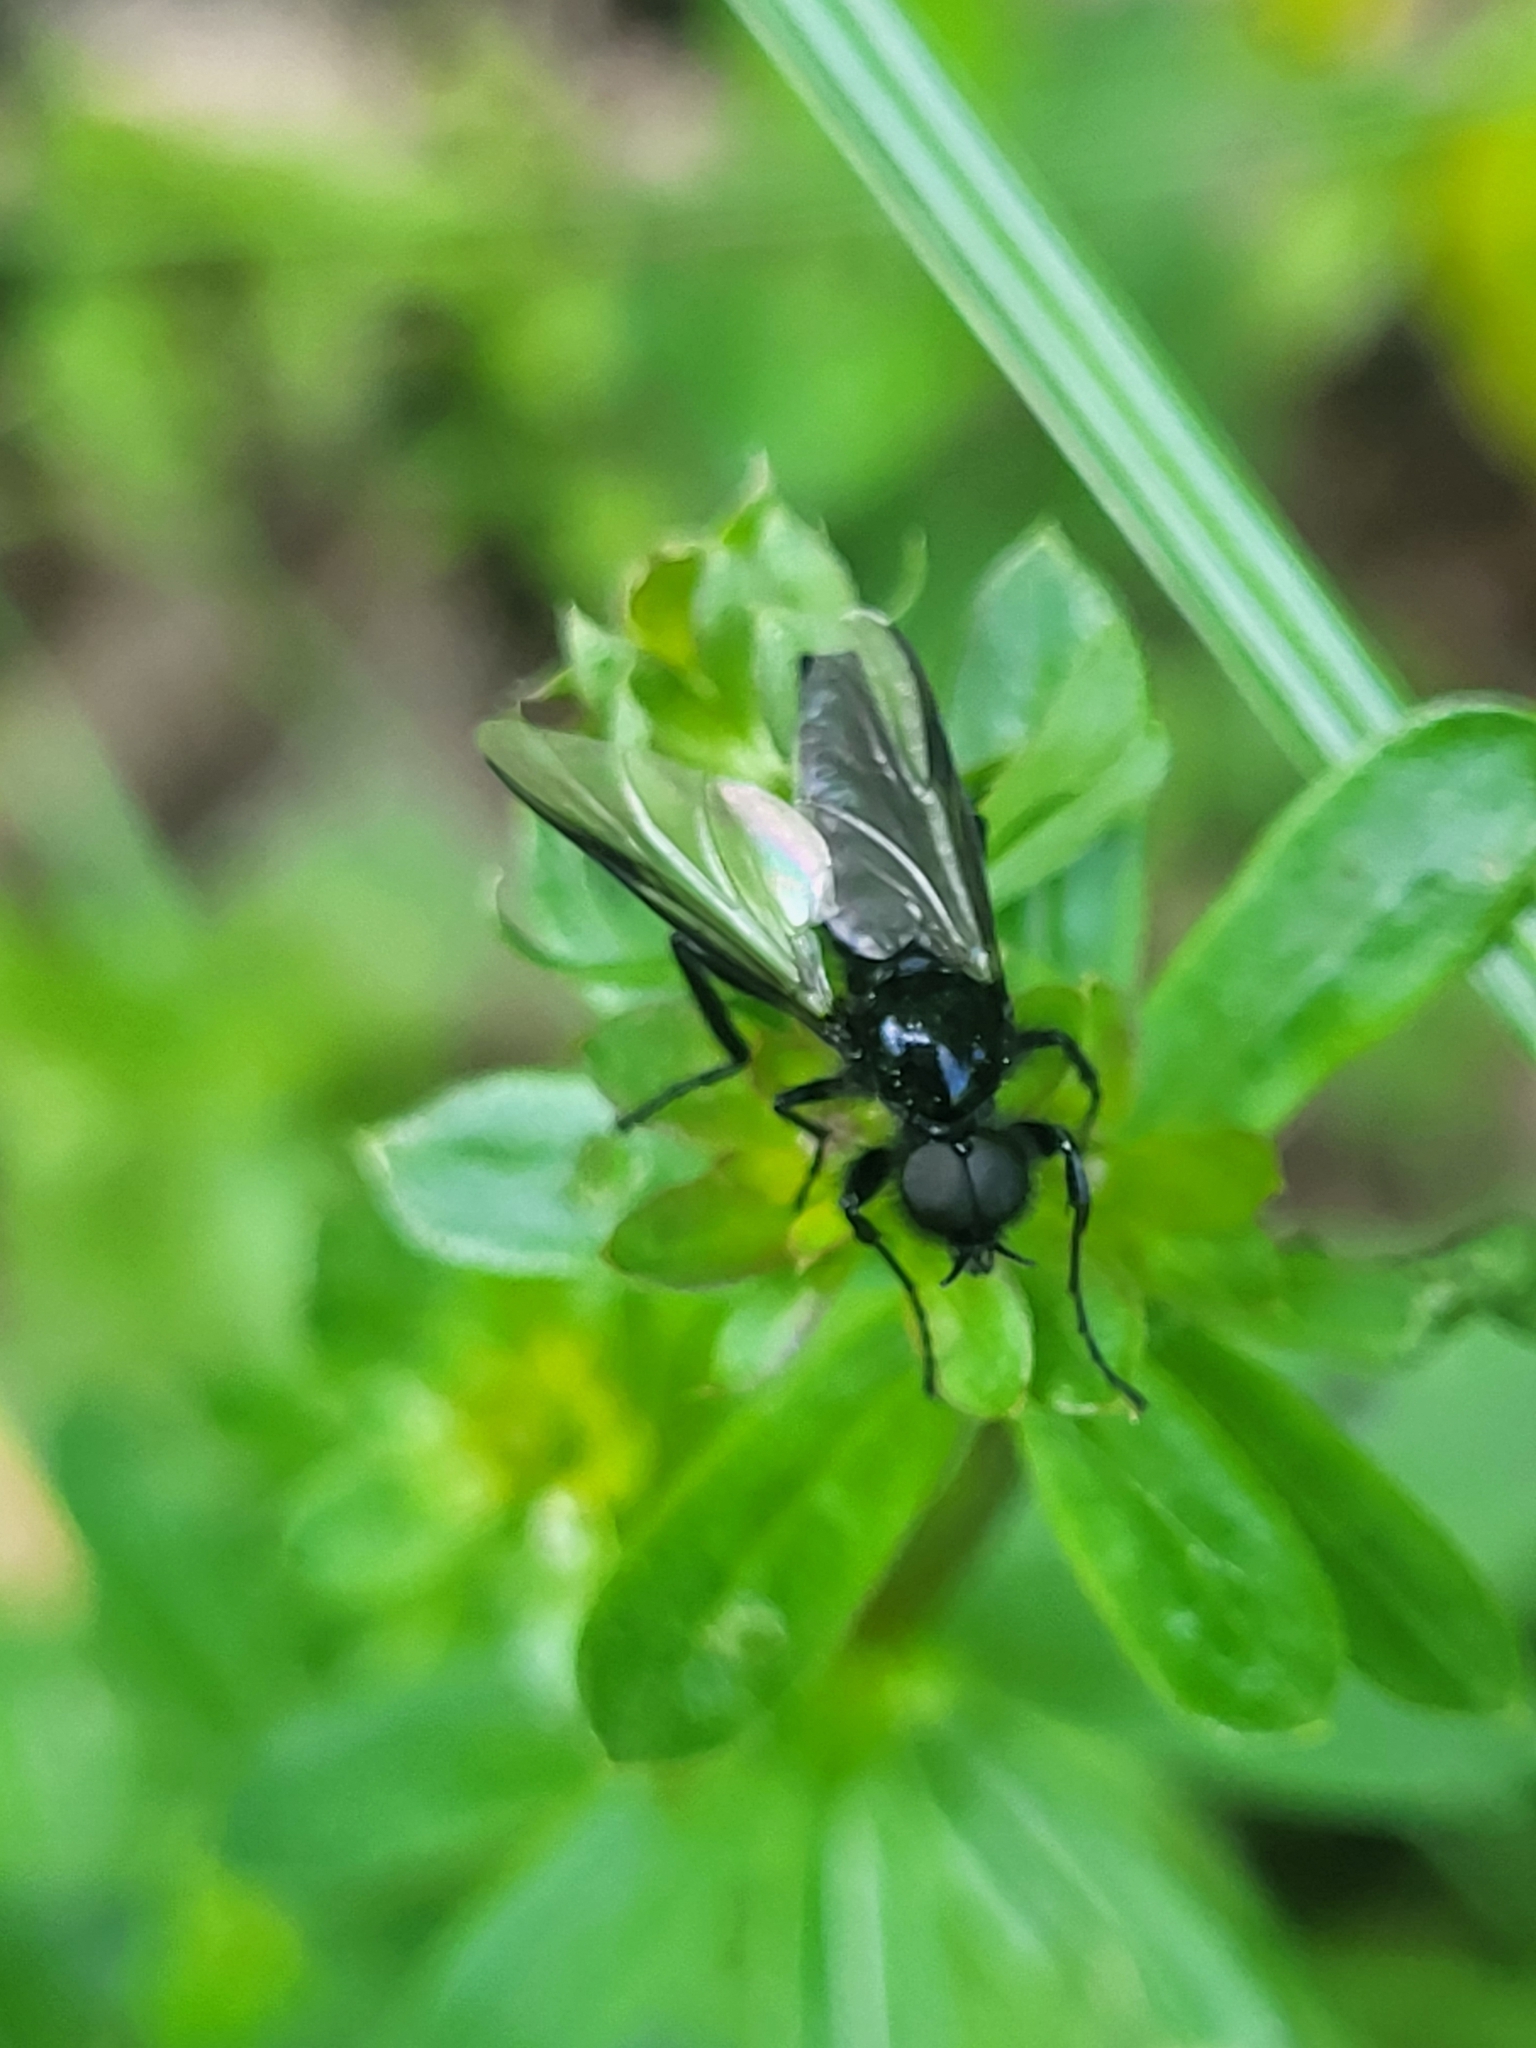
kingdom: Animalia
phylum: Arthropoda
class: Insecta
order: Diptera
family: Bibionidae
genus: Bibio
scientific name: Bibio marci
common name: St marks fly
